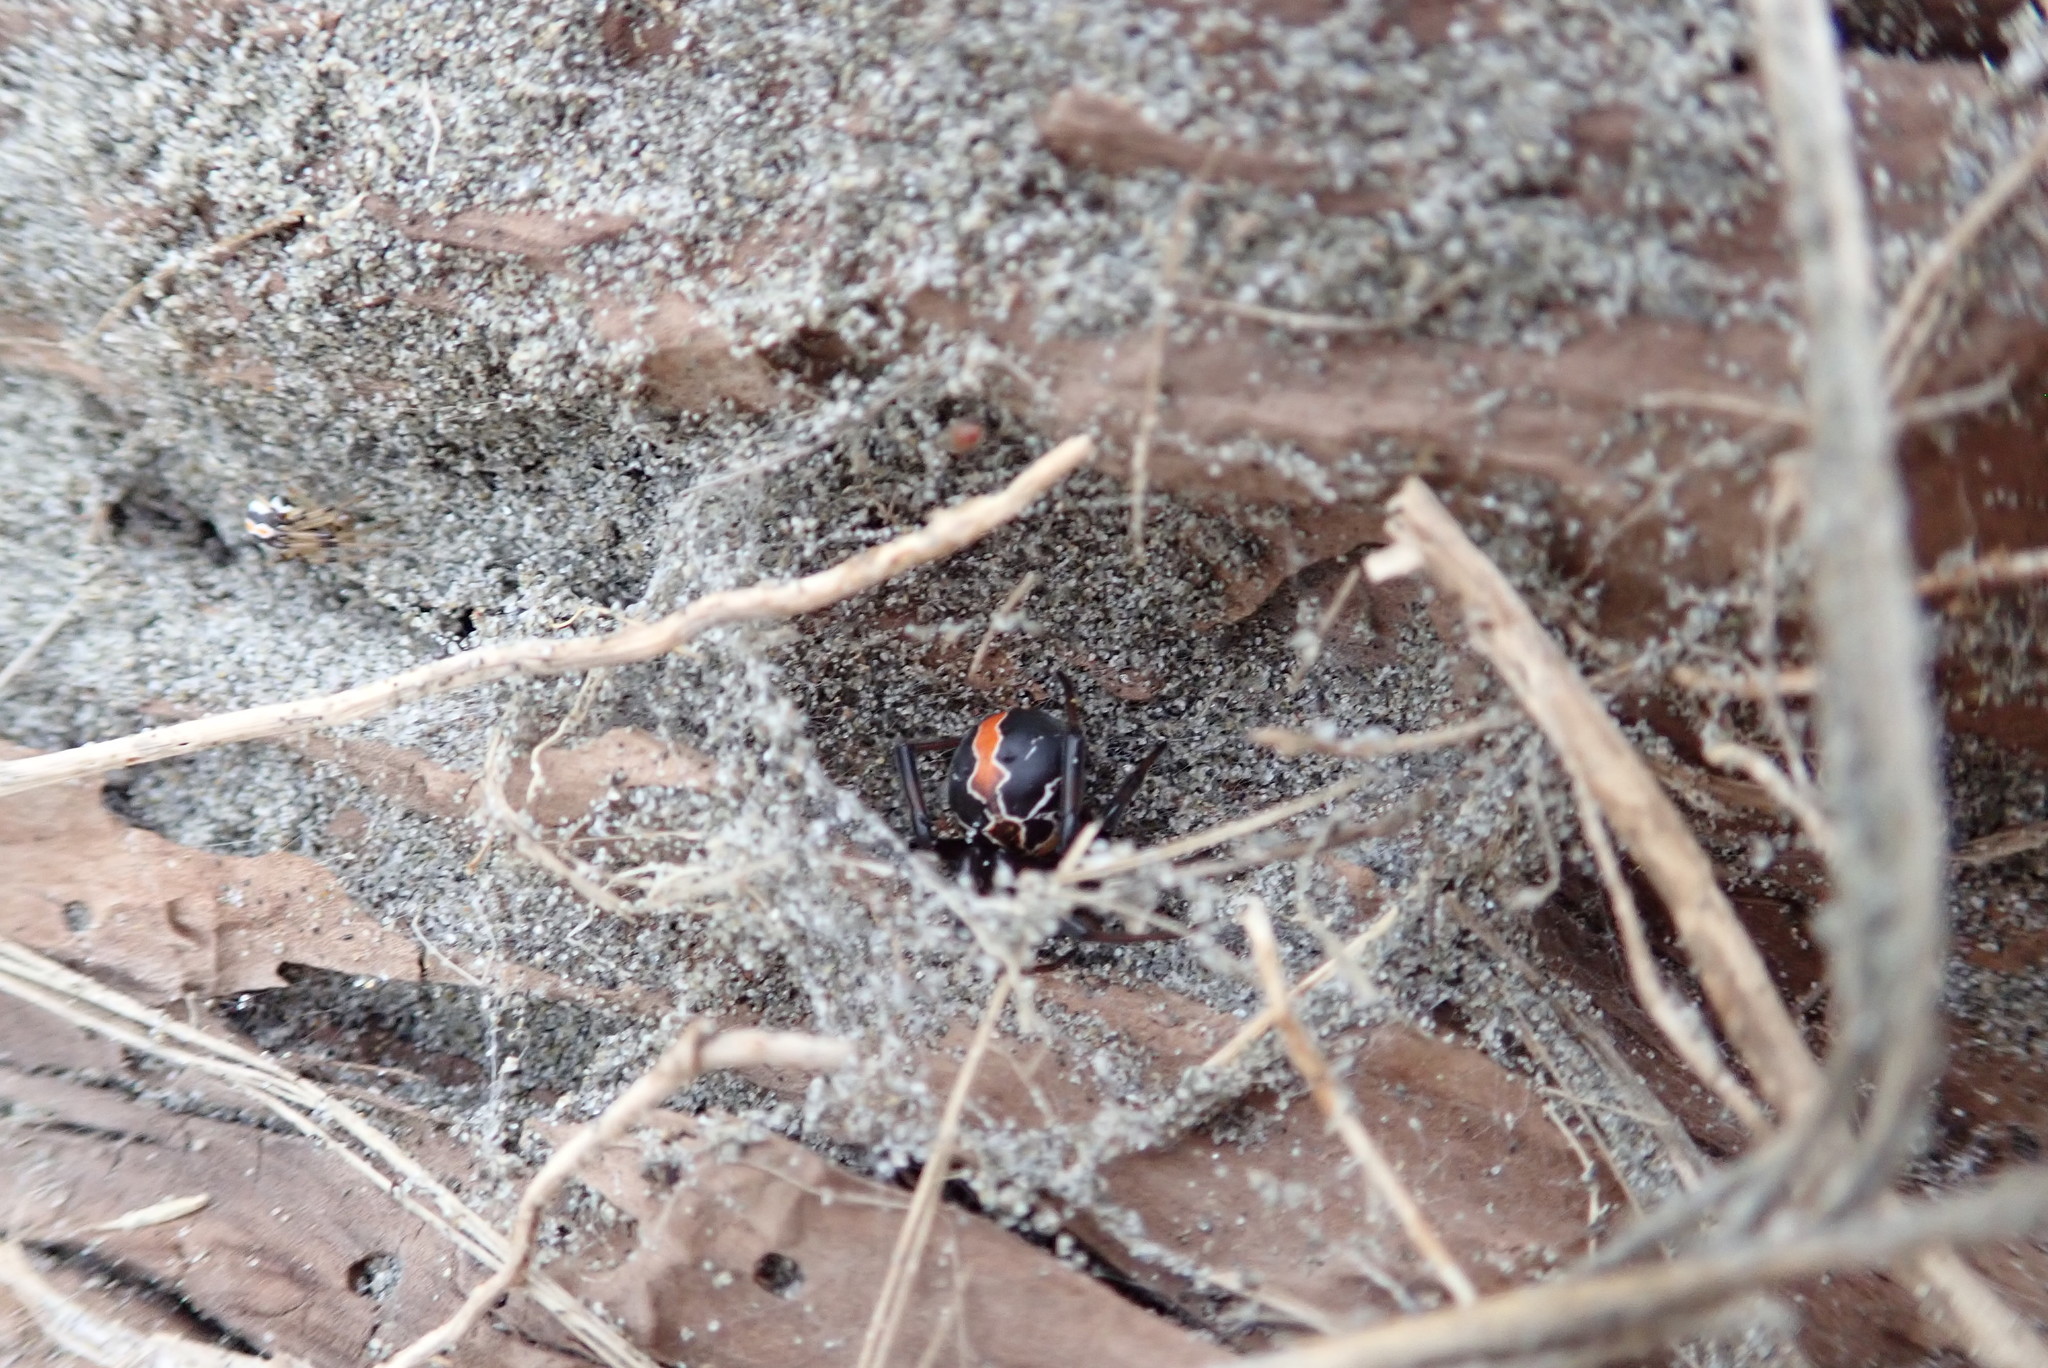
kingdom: Animalia
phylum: Arthropoda
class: Arachnida
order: Araneae
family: Theridiidae
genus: Latrodectus
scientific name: Latrodectus katipo
